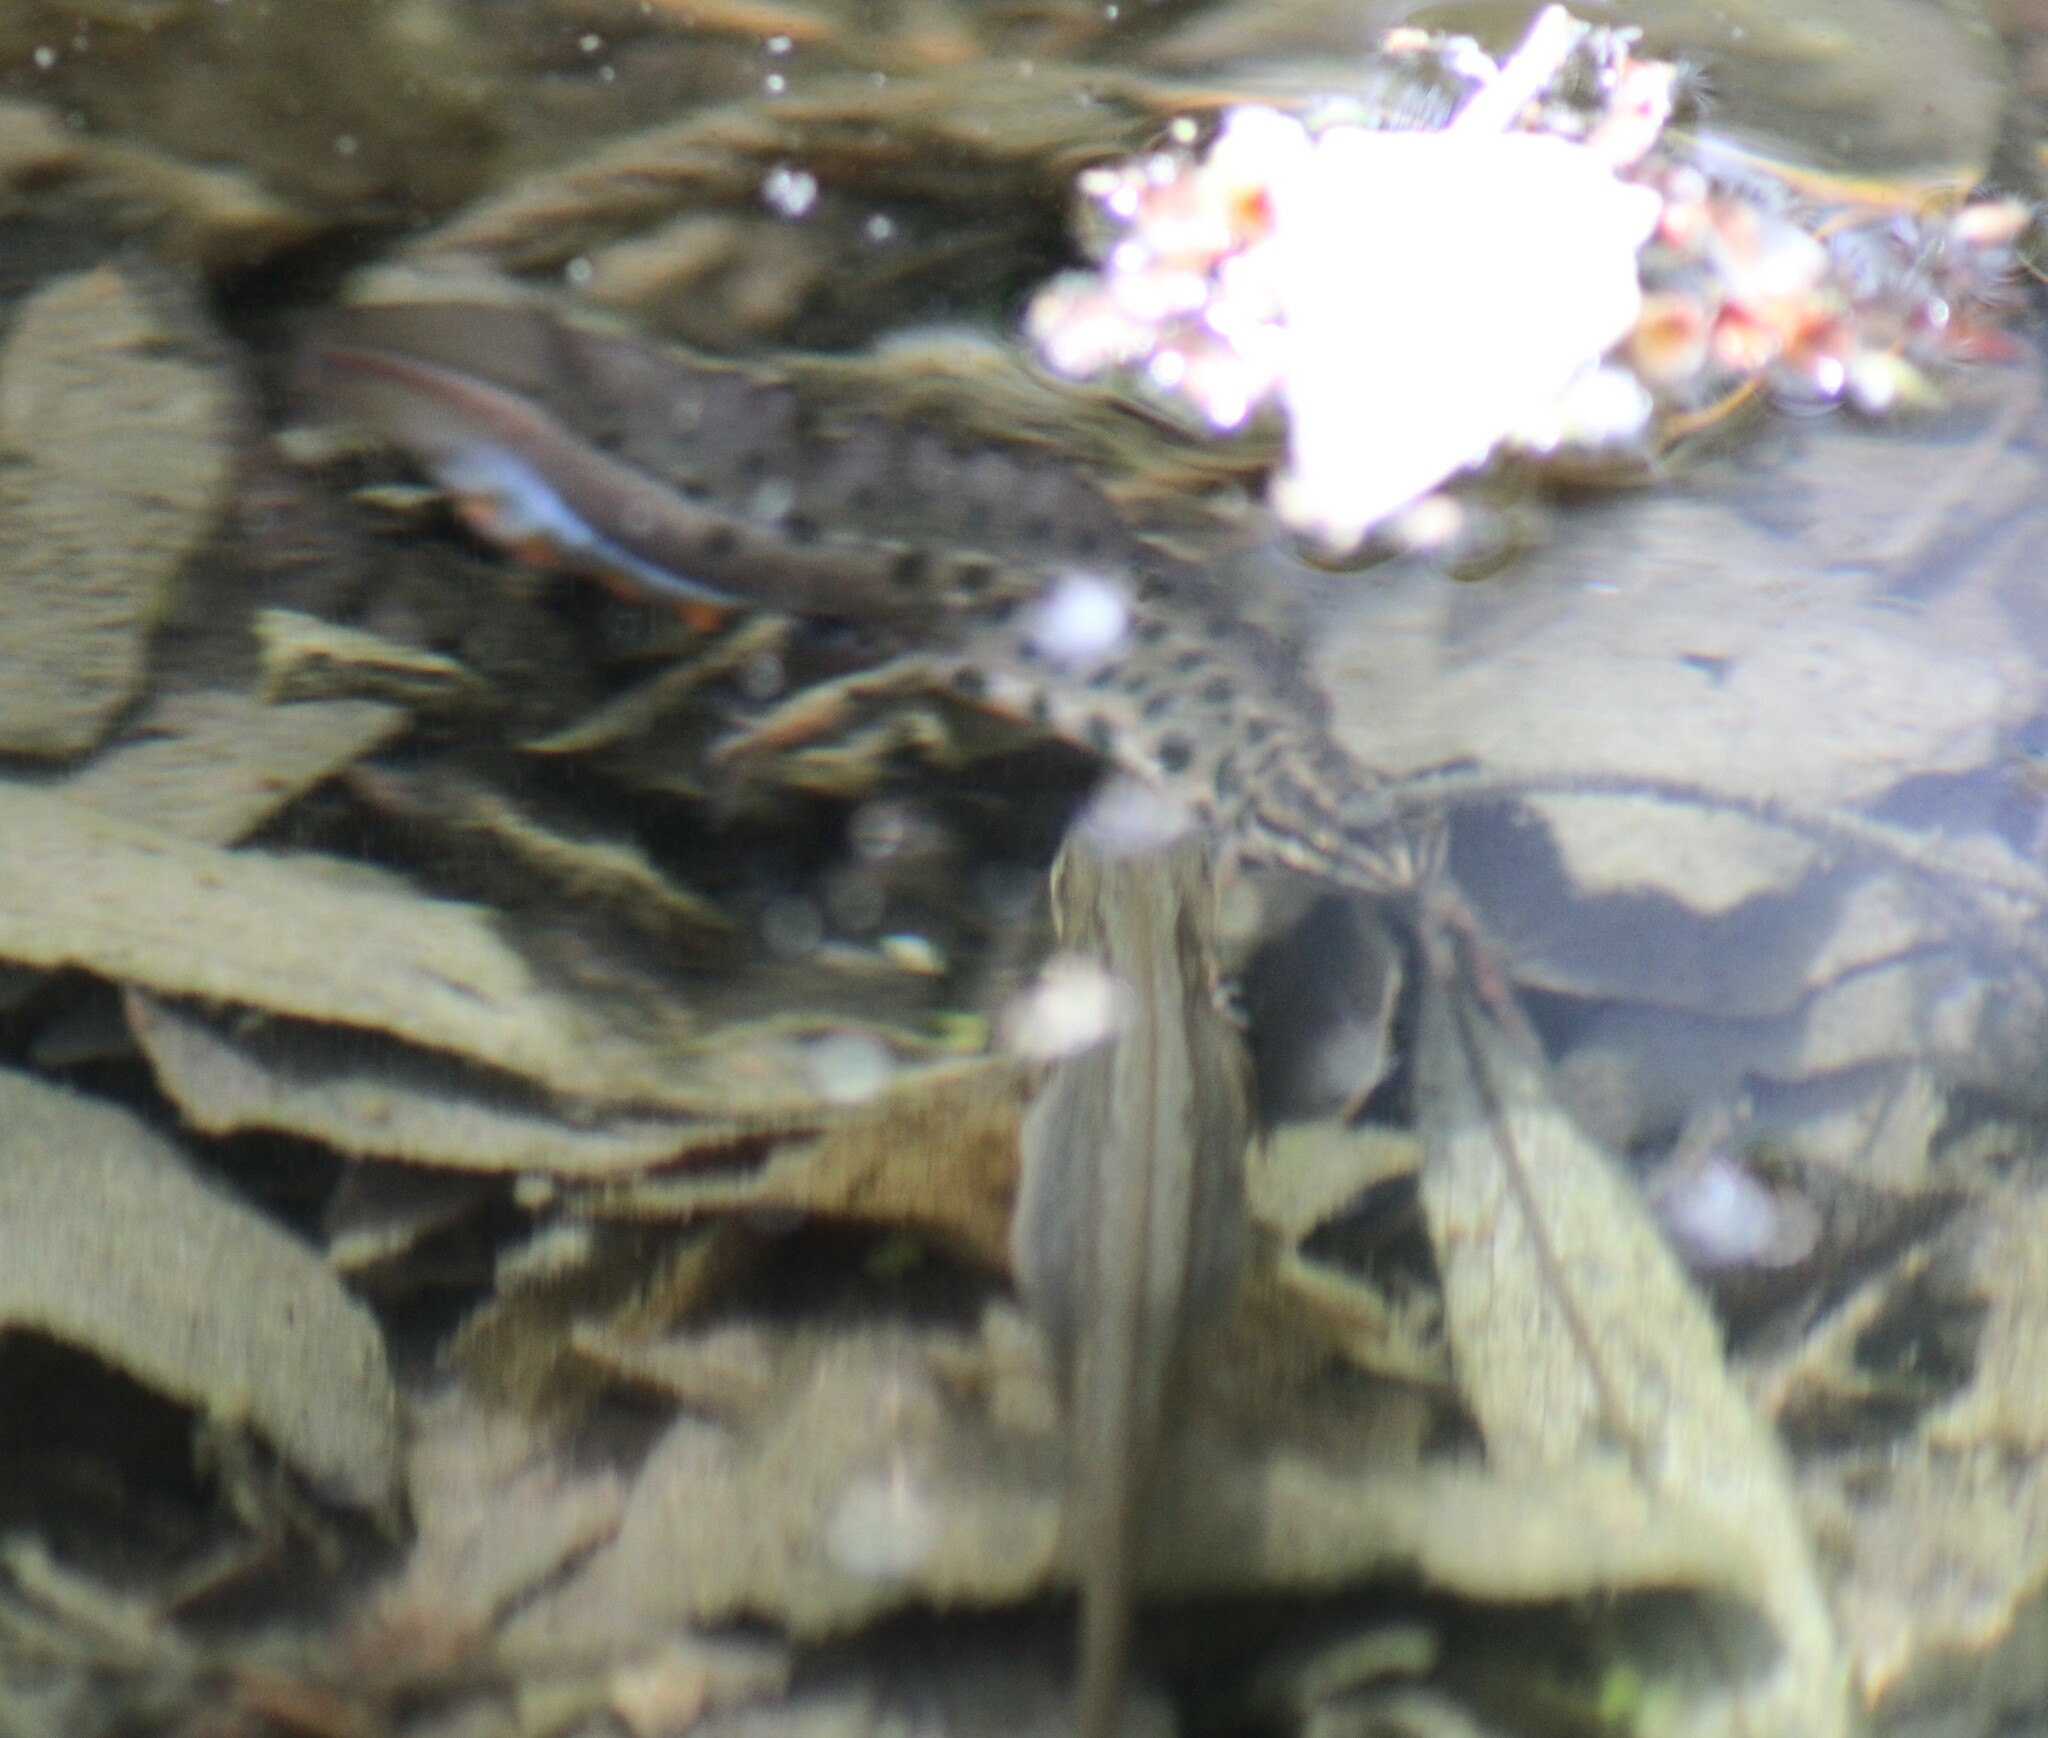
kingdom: Animalia
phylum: Chordata
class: Amphibia
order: Caudata
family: Salamandridae
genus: Lissotriton
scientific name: Lissotriton vulgaris
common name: Smooth newt
